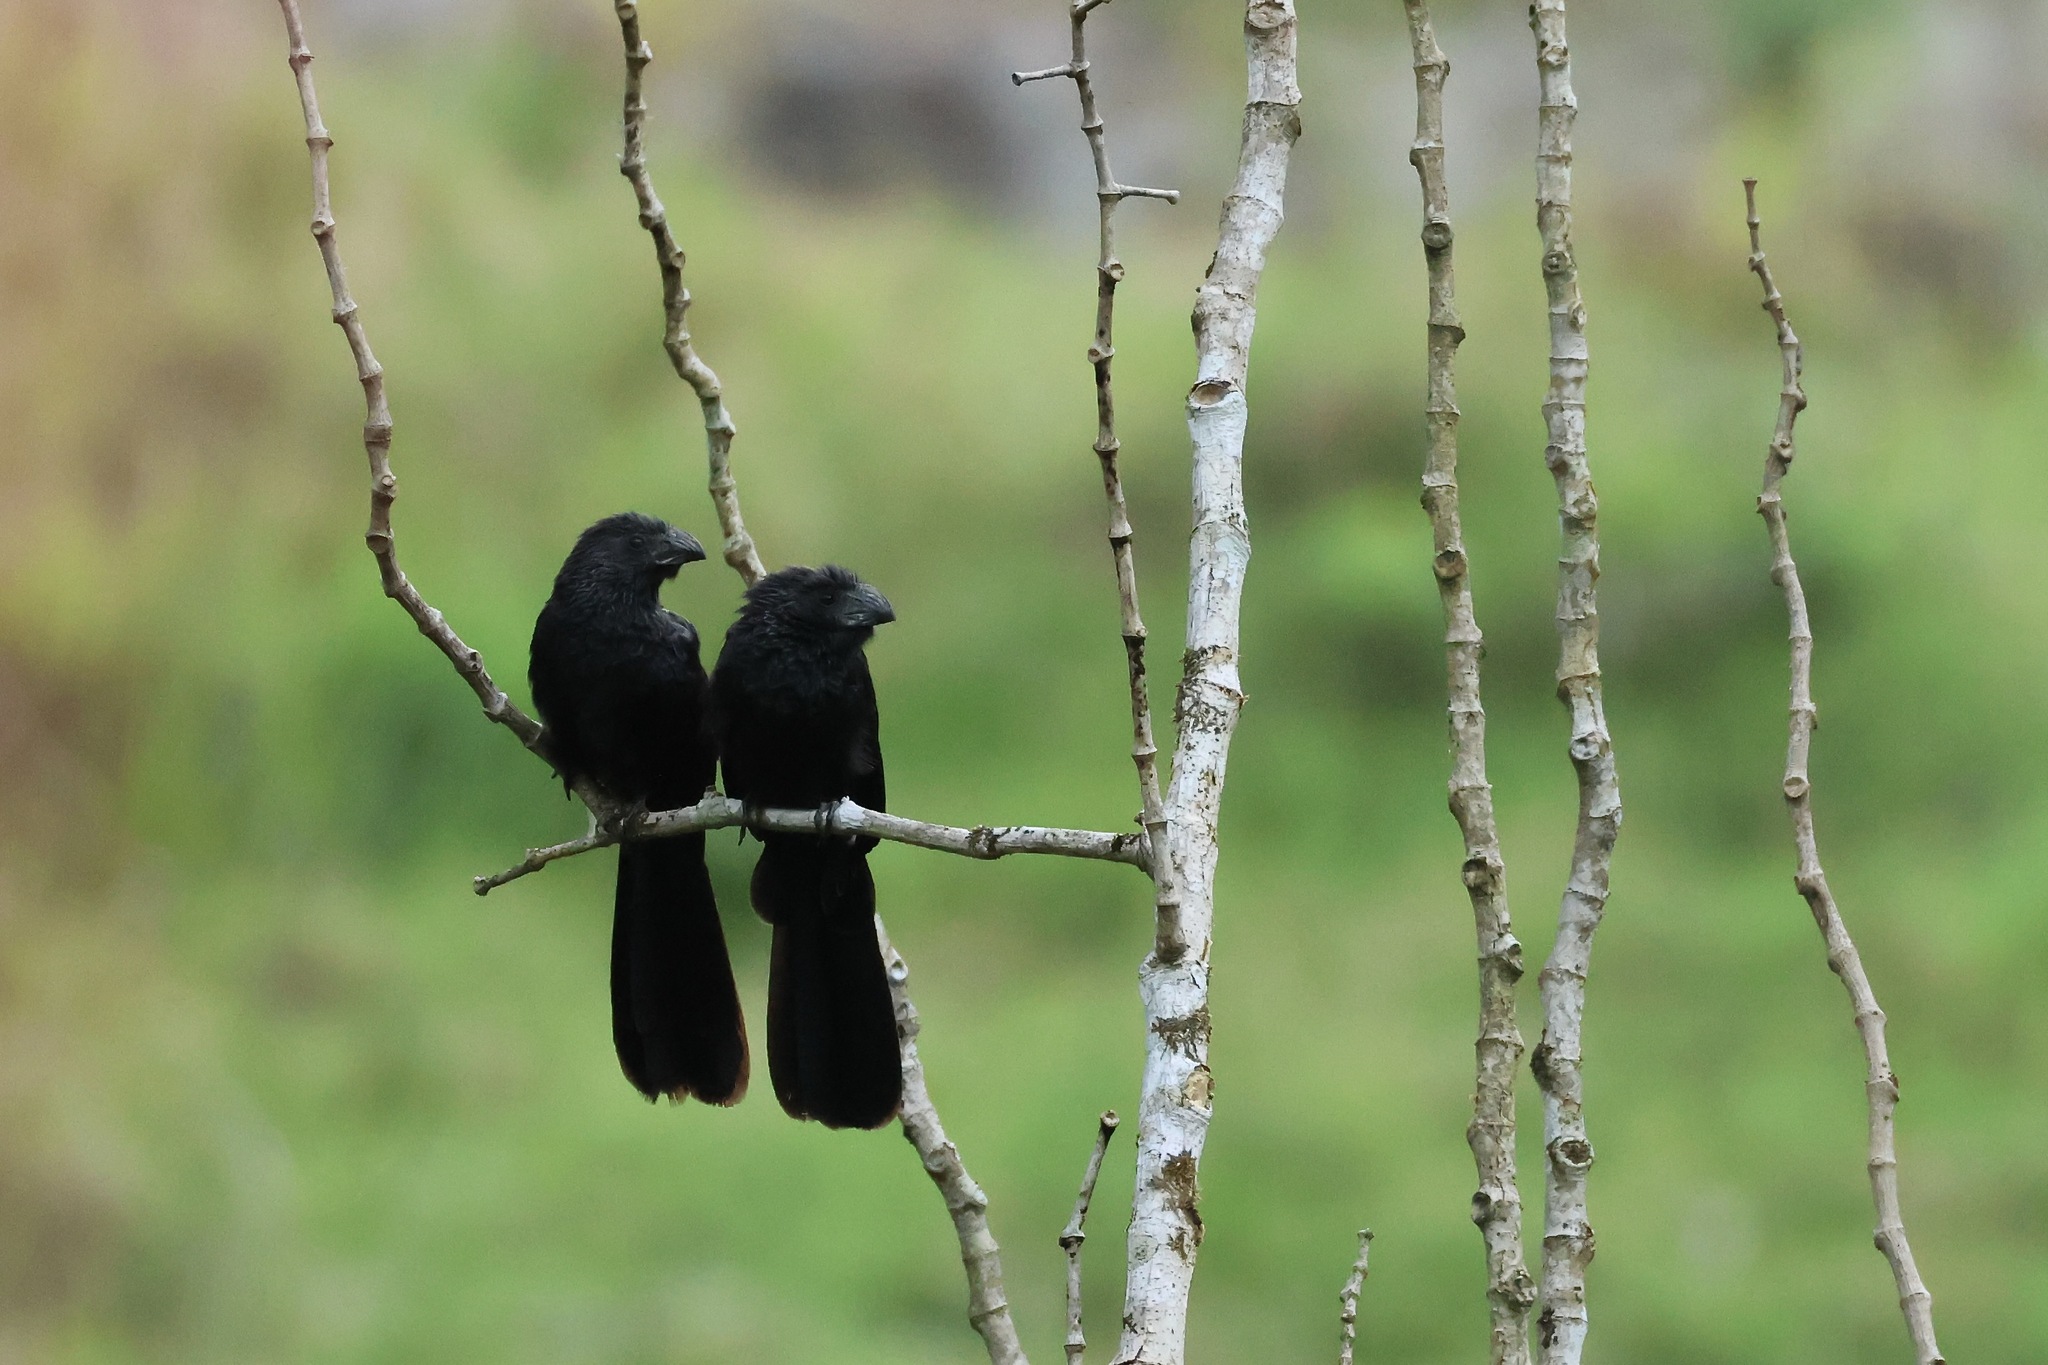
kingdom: Animalia
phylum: Chordata
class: Aves
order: Cuculiformes
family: Cuculidae
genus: Crotophaga
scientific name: Crotophaga sulcirostris
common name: Groove-billed ani
